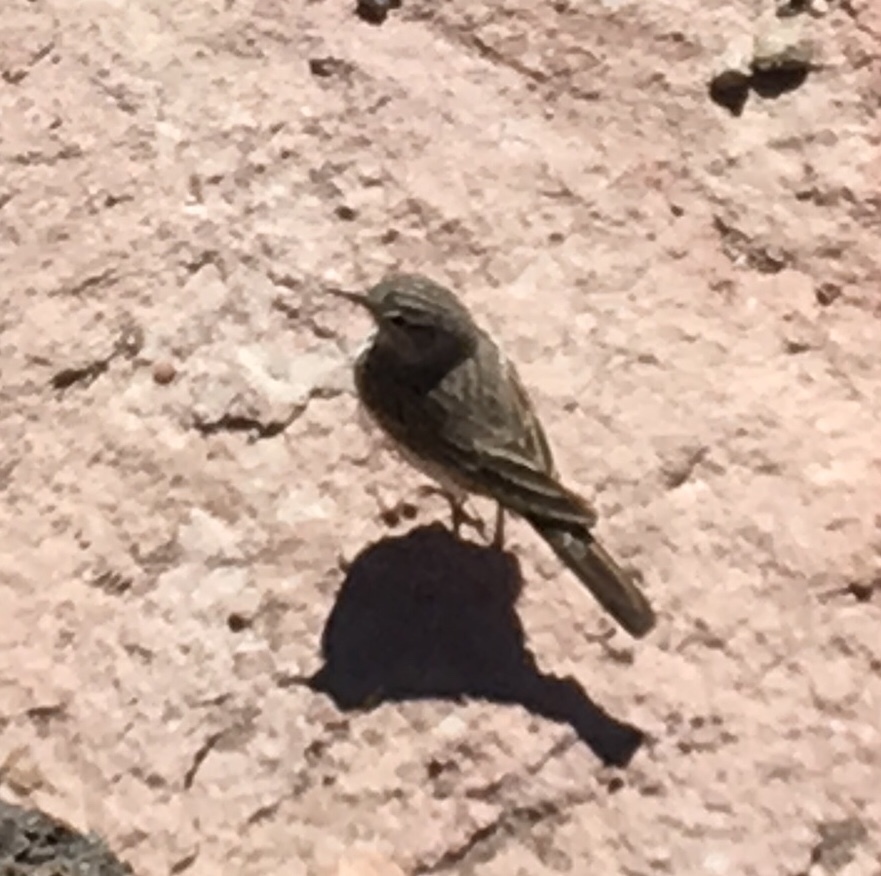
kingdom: Animalia
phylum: Chordata
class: Aves
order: Passeriformes
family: Motacillidae
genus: Anthus
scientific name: Anthus berthelotii
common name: Berthelot's pipit
